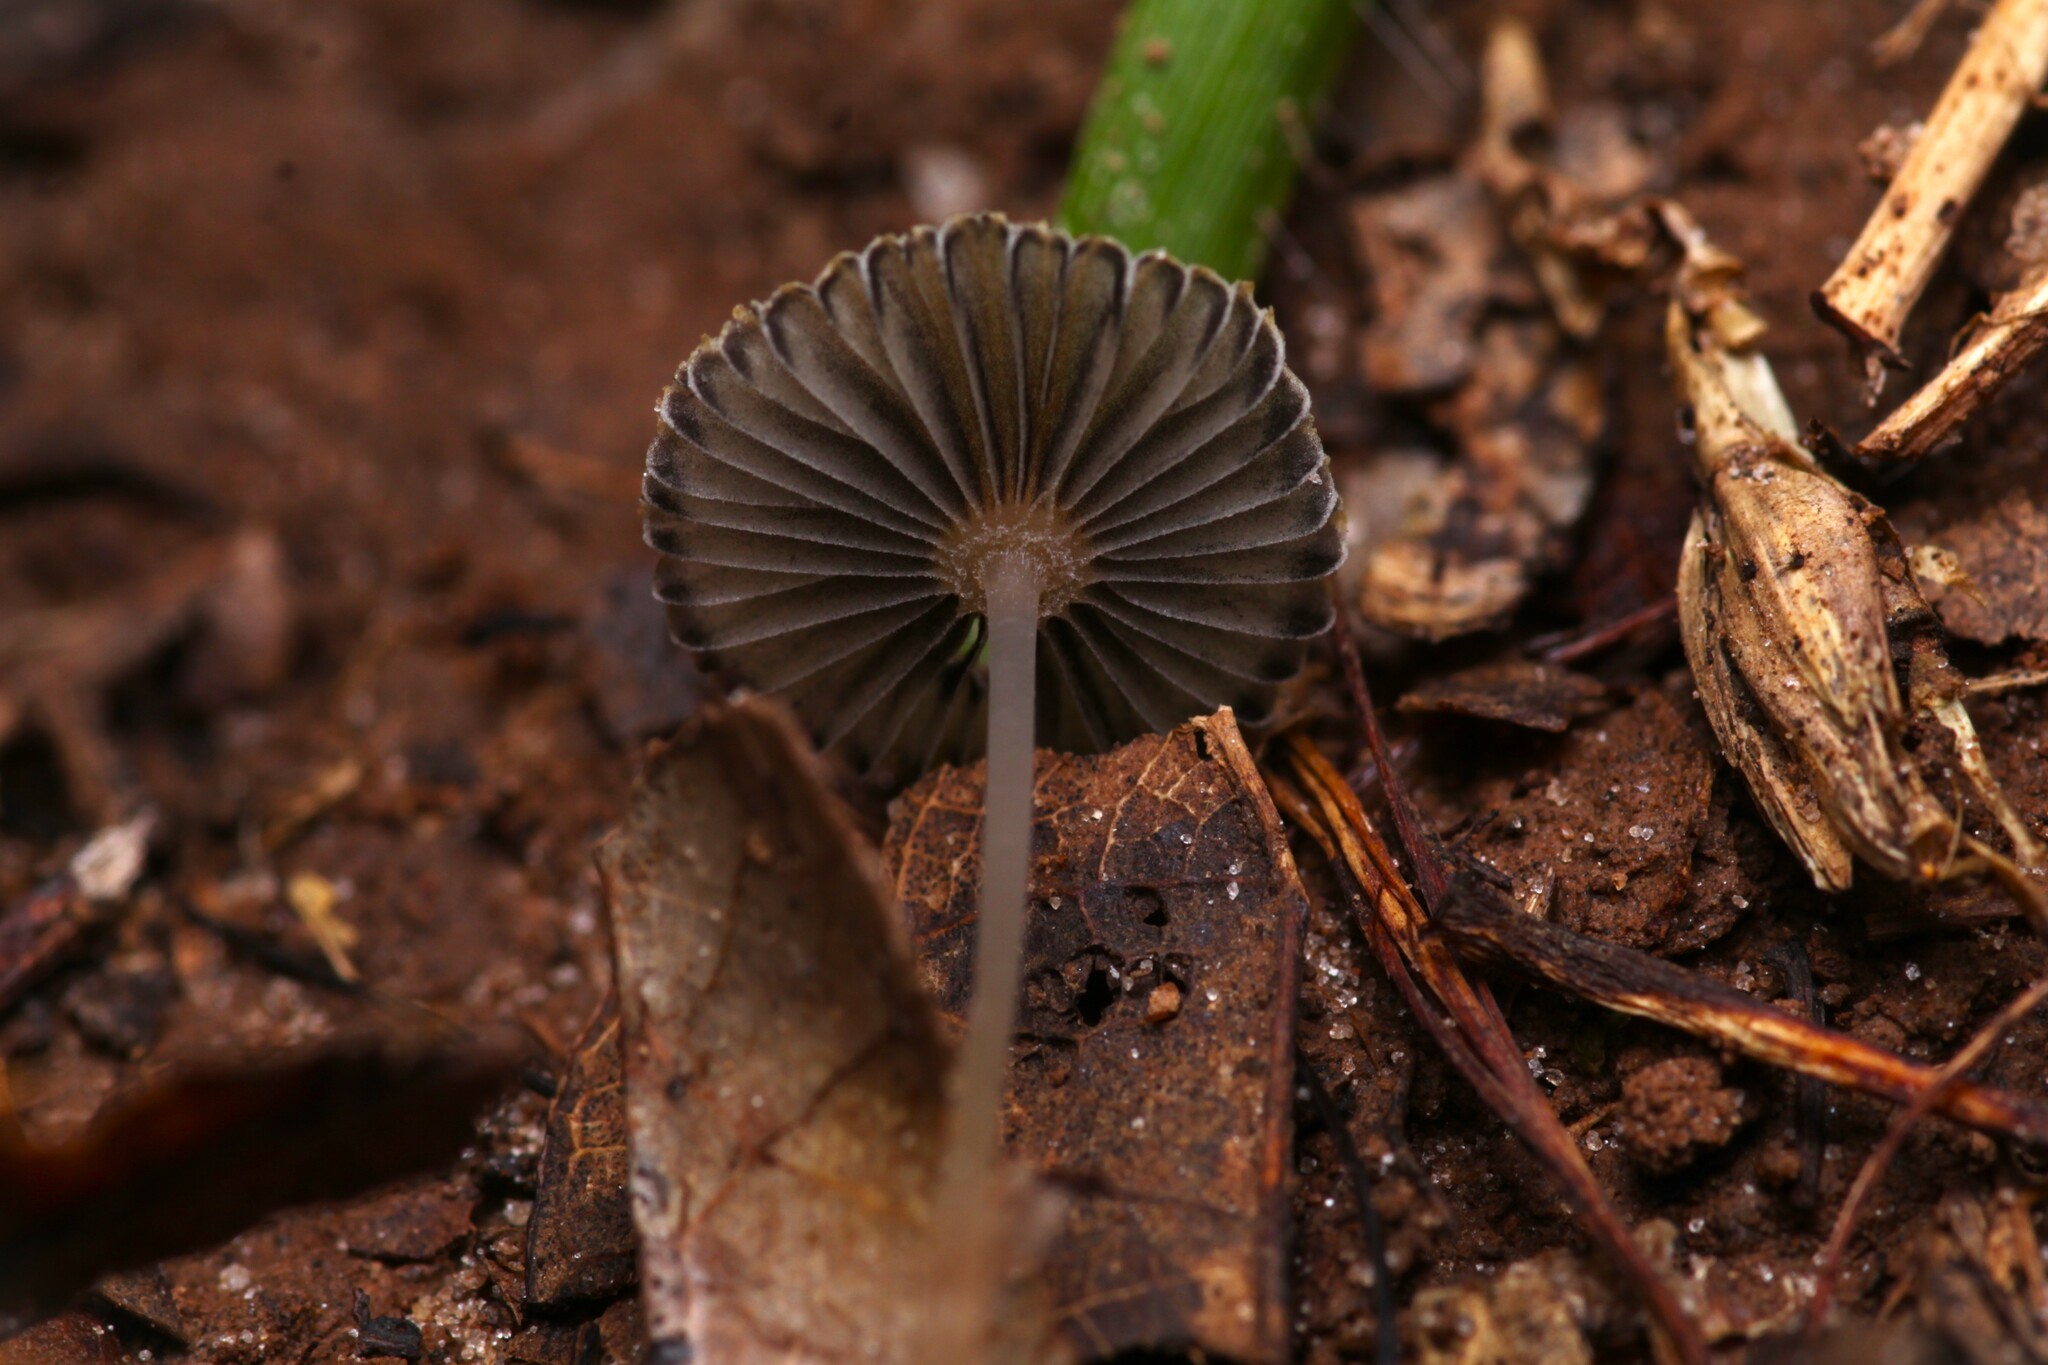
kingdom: Fungi
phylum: Basidiomycota
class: Agaricomycetes
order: Agaricales
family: Psathyrellaceae
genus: Parasola
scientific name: Parasola plicatilis
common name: Pleated inkcap
